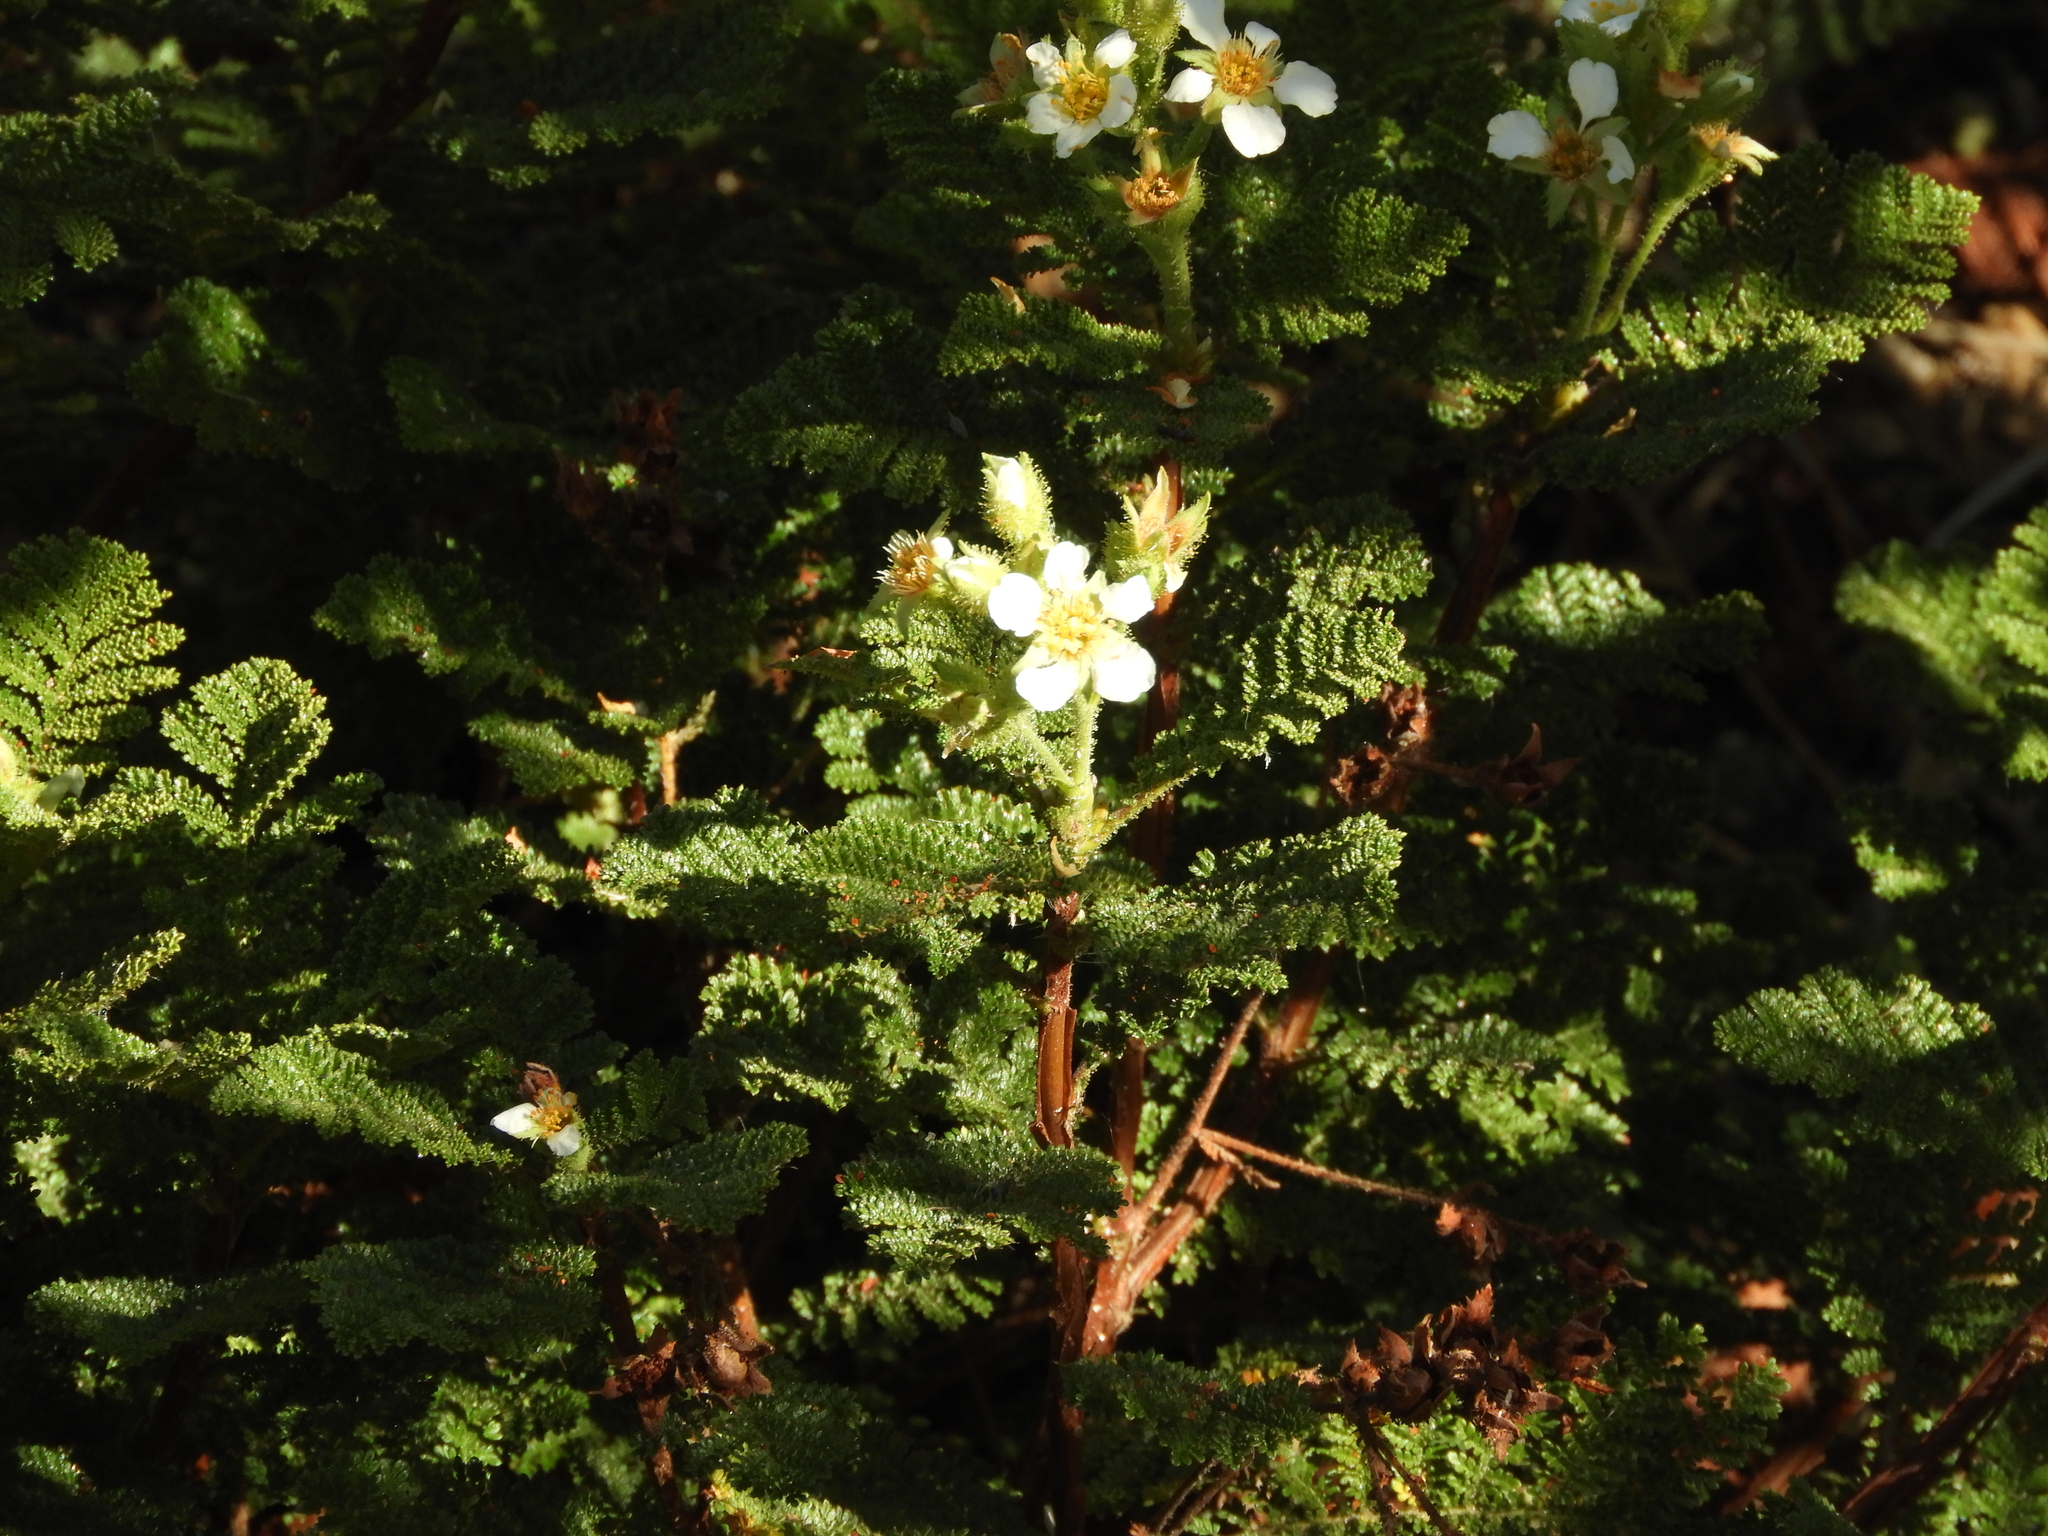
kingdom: Plantae
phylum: Tracheophyta
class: Magnoliopsida
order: Rosales
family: Rosaceae
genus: Chamaebatia
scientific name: Chamaebatia foliolosa
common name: Mountain misery
